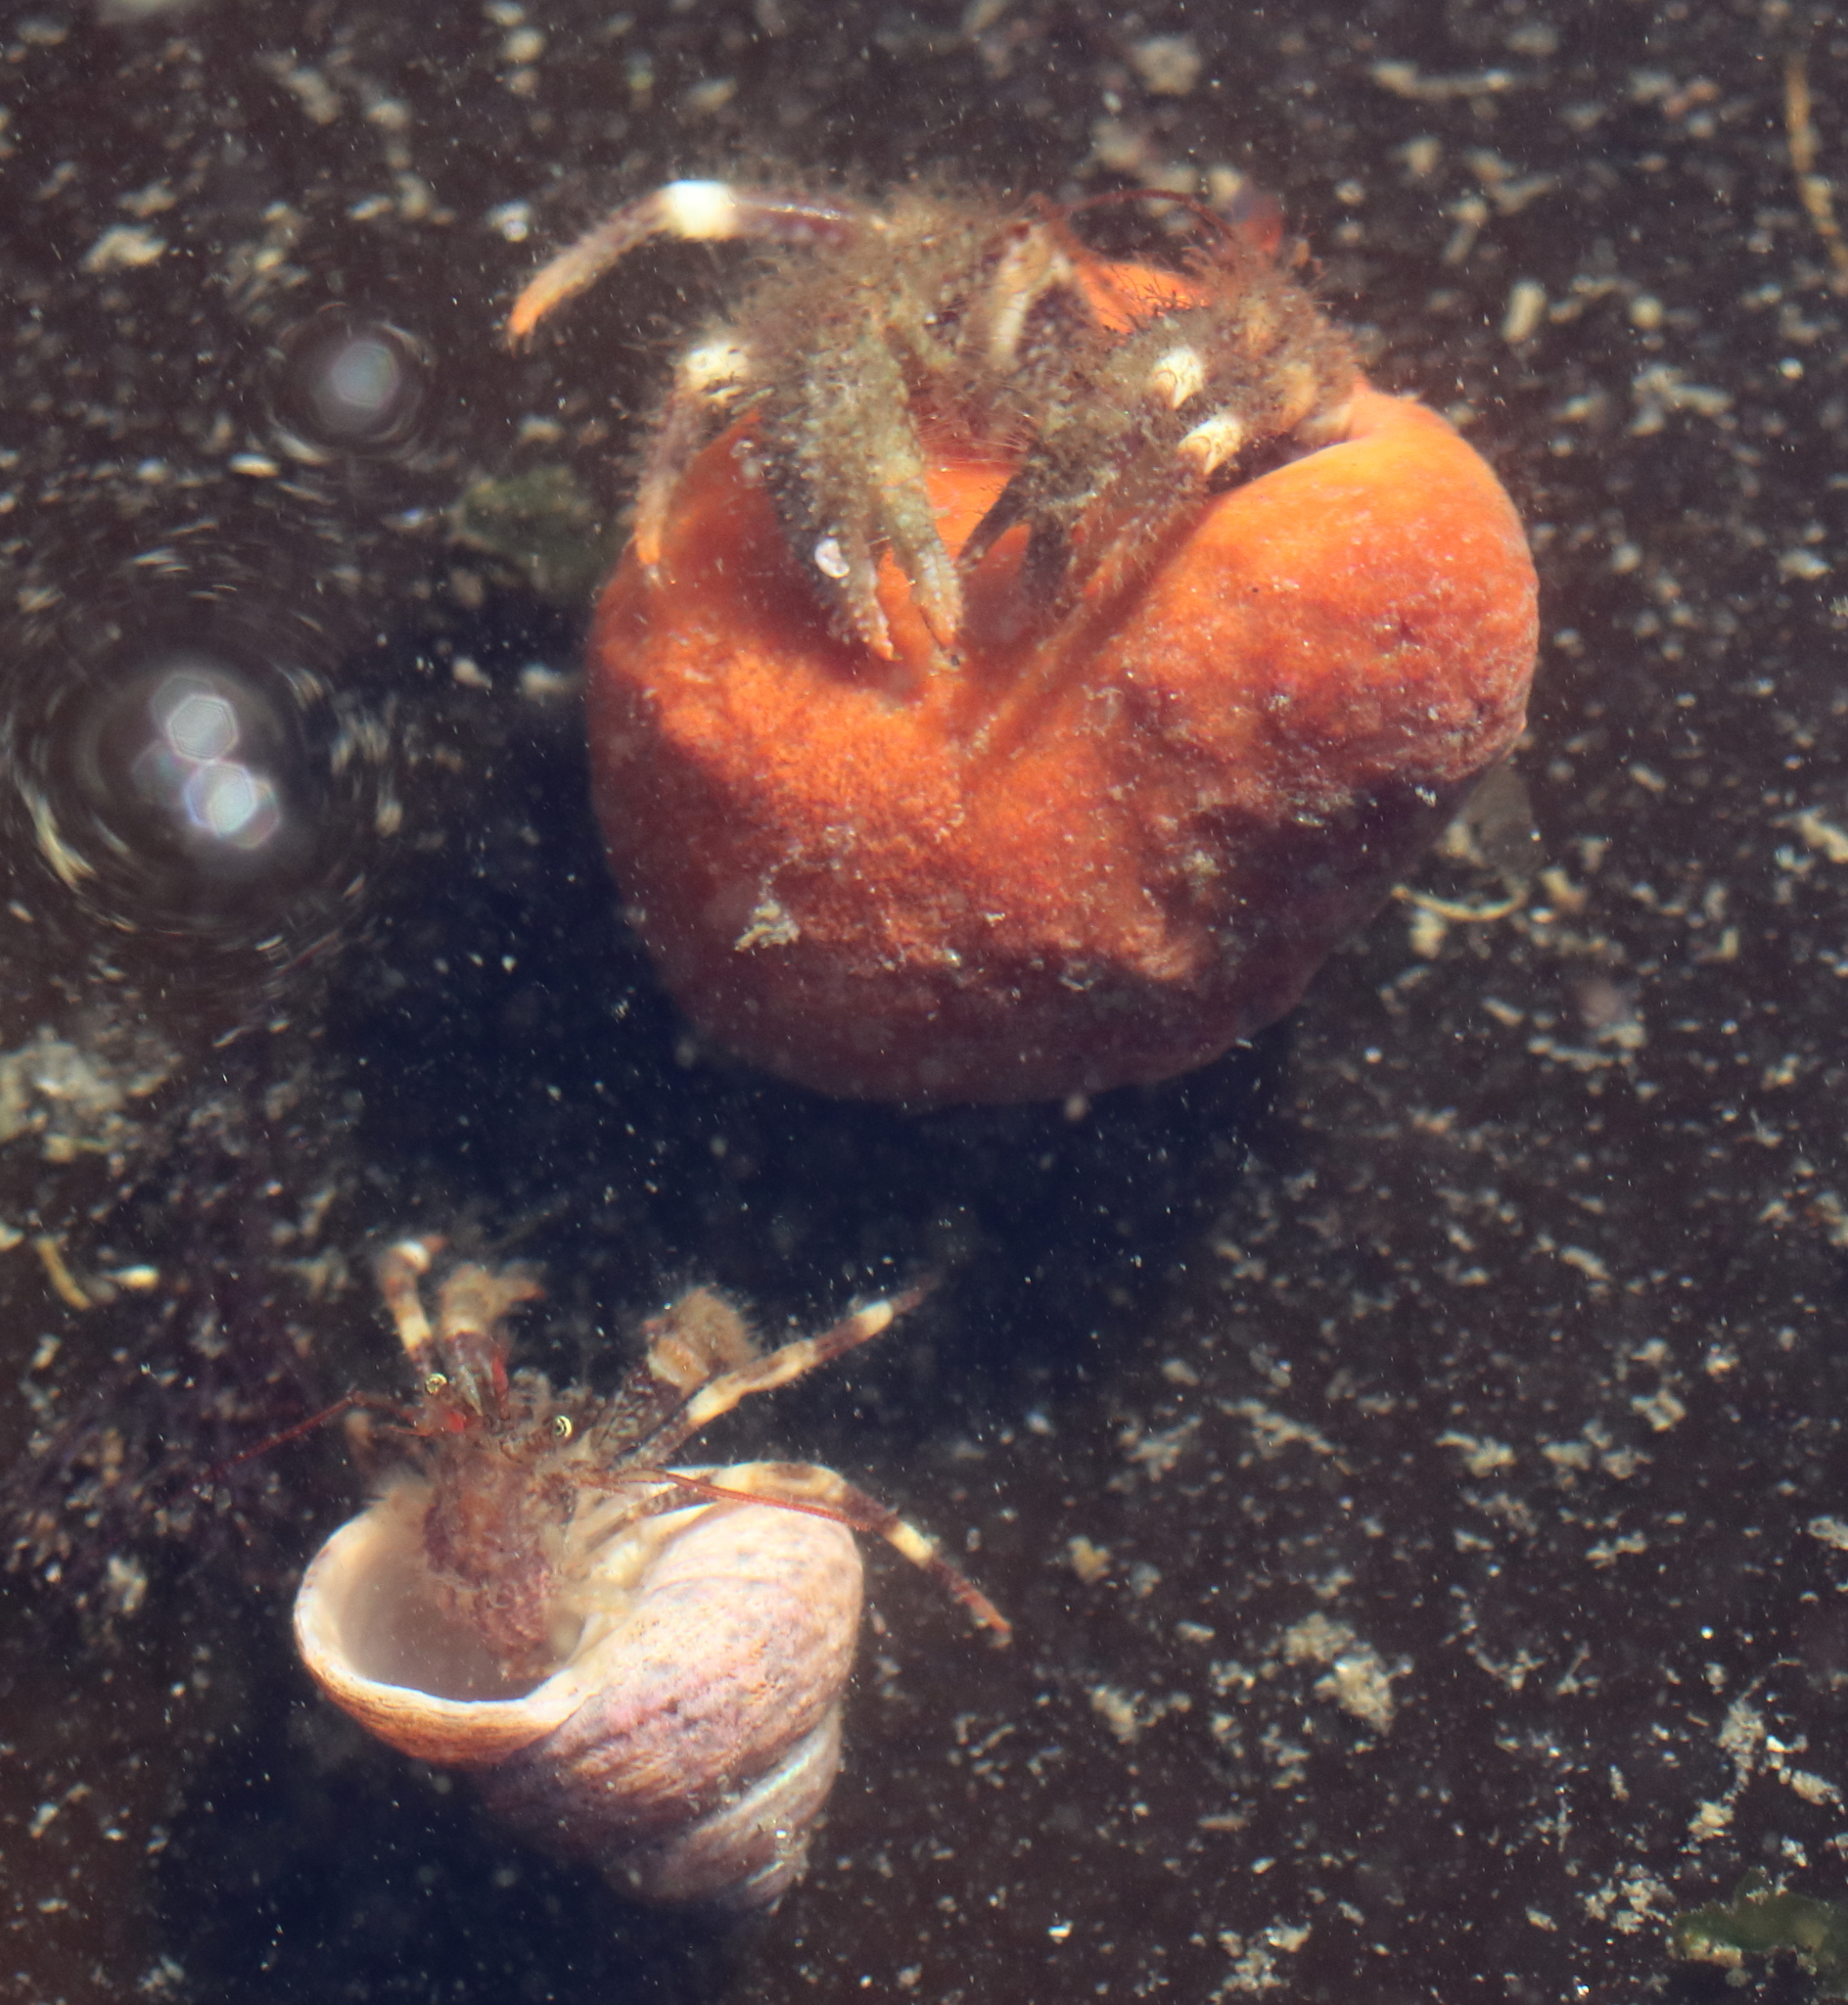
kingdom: Animalia
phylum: Arthropoda
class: Malacostraca
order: Decapoda
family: Paguridae
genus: Pagurus
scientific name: Pagurus caurinus
